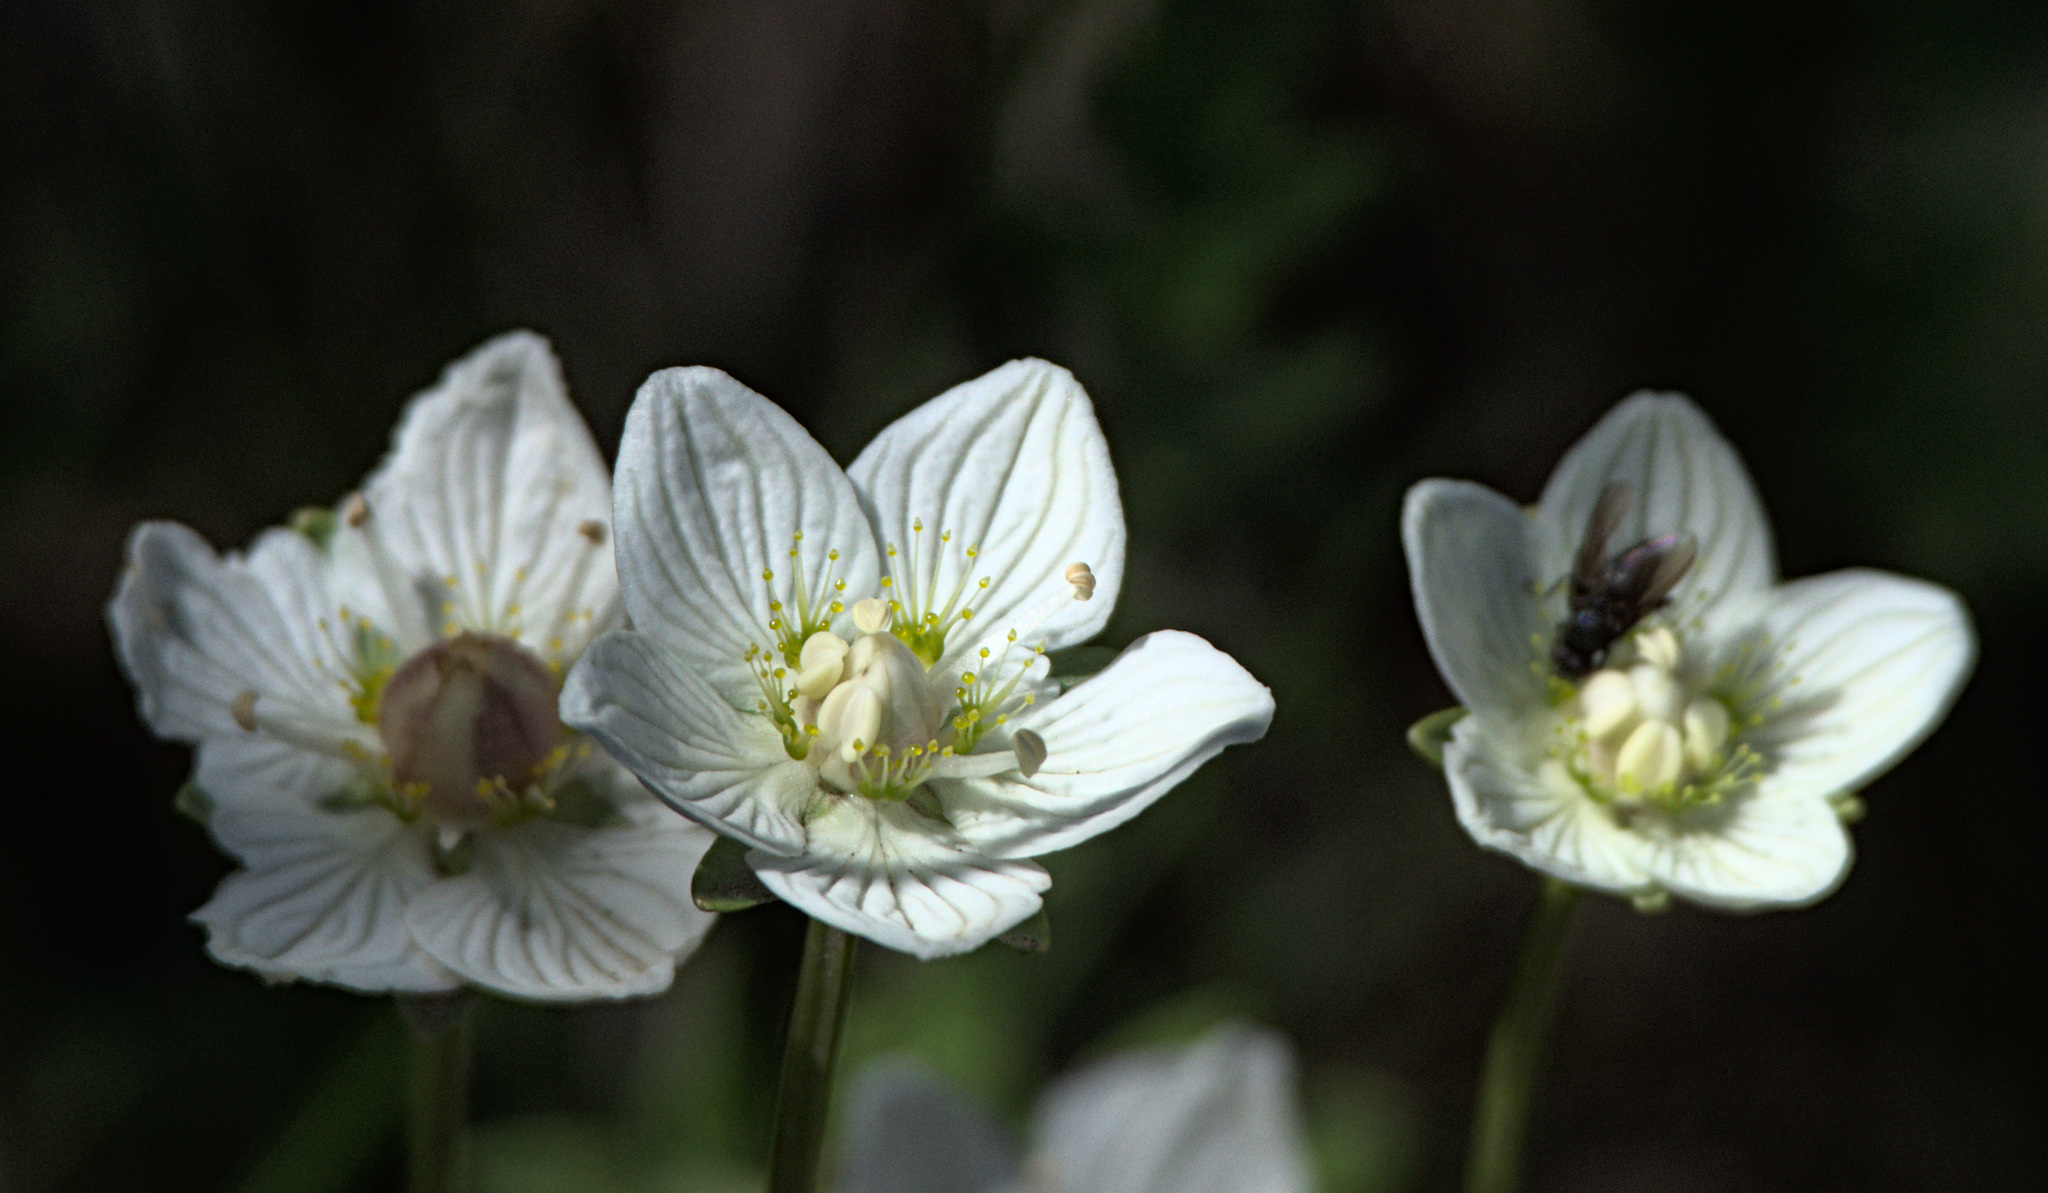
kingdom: Plantae
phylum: Tracheophyta
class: Magnoliopsida
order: Celastrales
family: Parnassiaceae
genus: Parnassia
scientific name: Parnassia palustris
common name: Grass-of-parnassus
